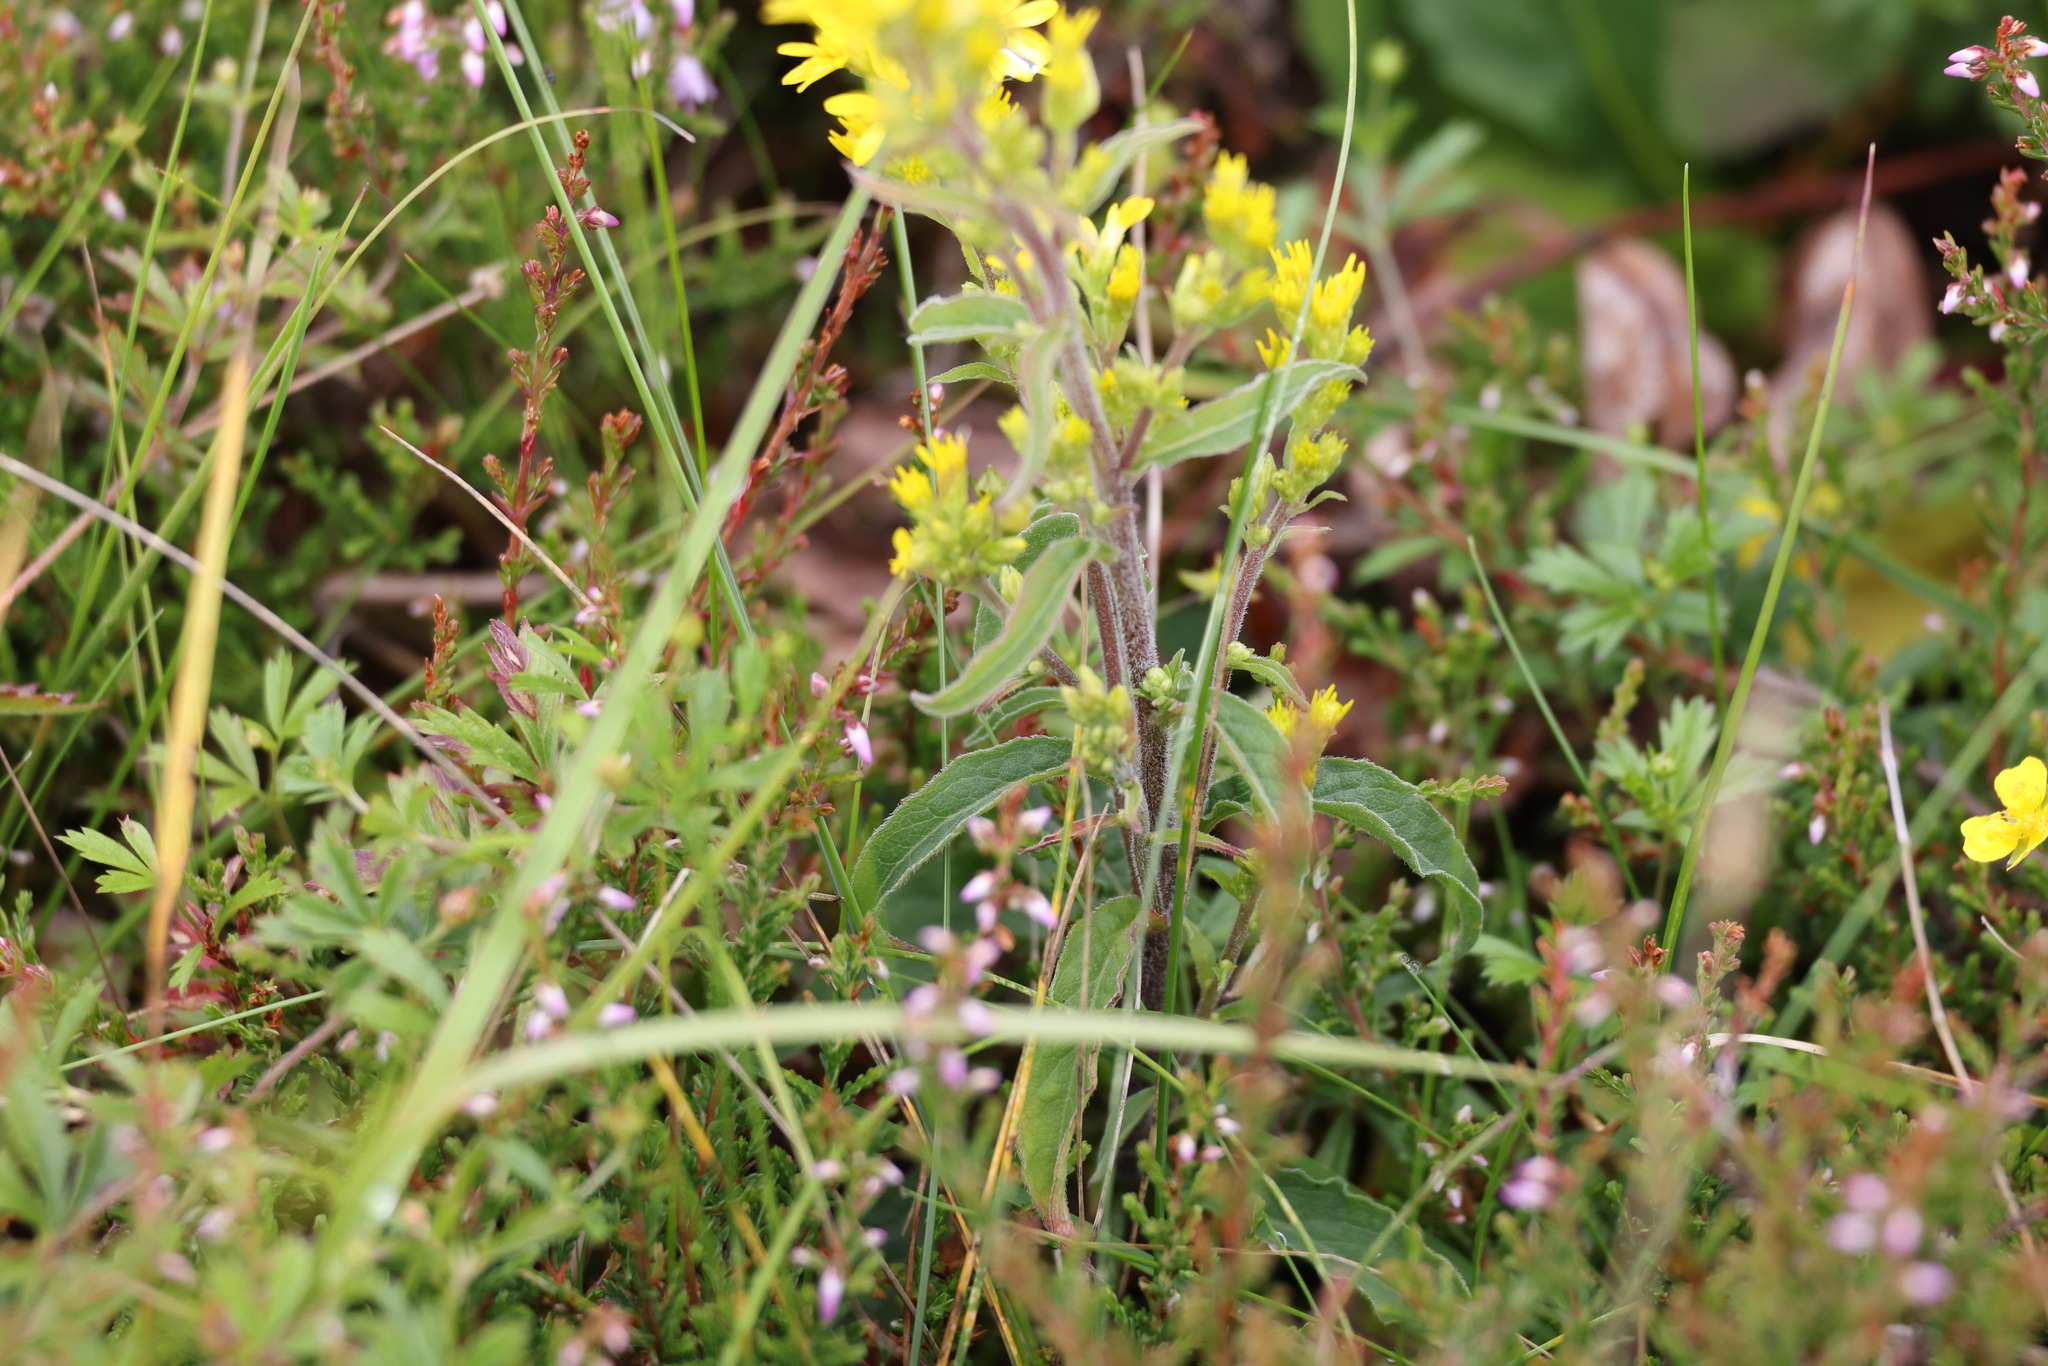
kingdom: Plantae
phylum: Tracheophyta
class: Magnoliopsida
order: Asterales
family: Asteraceae
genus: Solidago
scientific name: Solidago virgaurea
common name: Goldenrod
